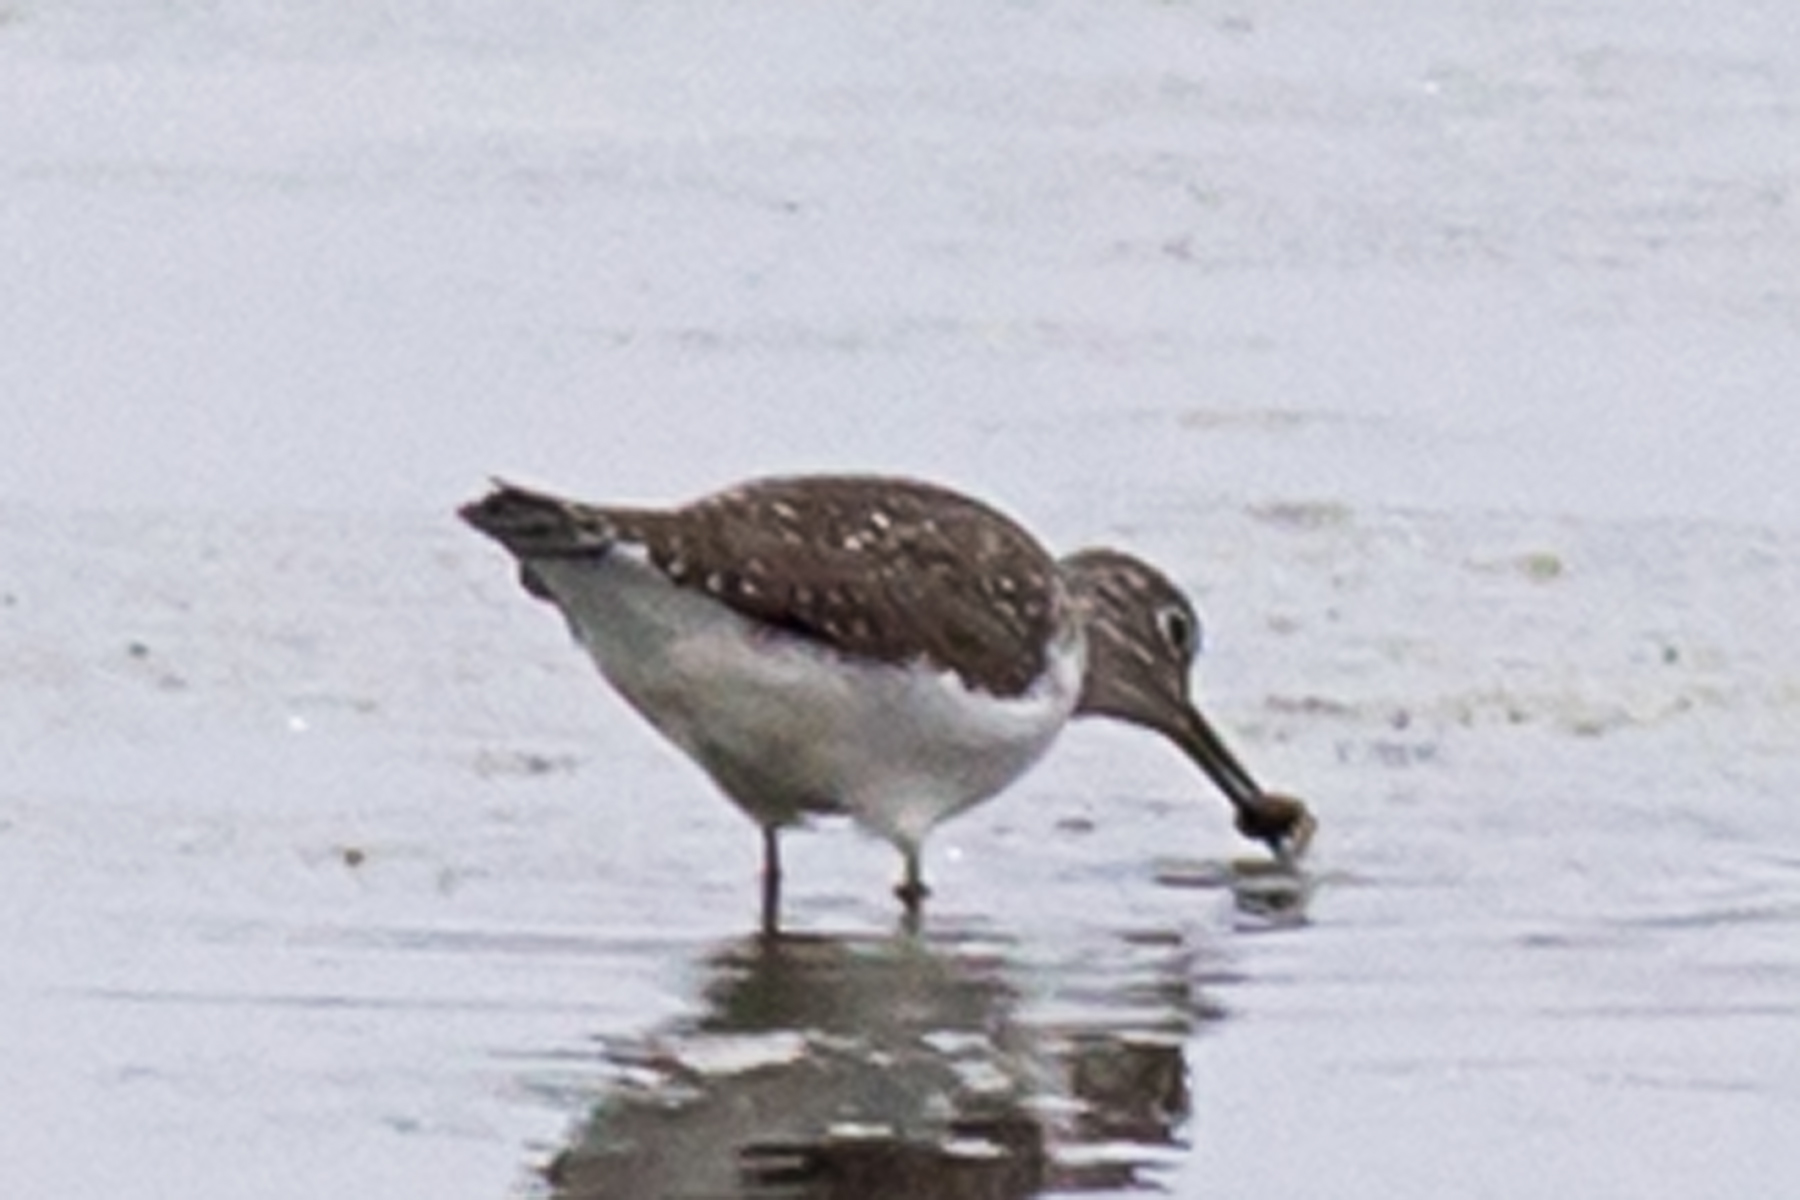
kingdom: Animalia
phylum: Chordata
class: Aves
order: Charadriiformes
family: Scolopacidae
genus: Tringa
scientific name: Tringa solitaria
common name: Solitary sandpiper
